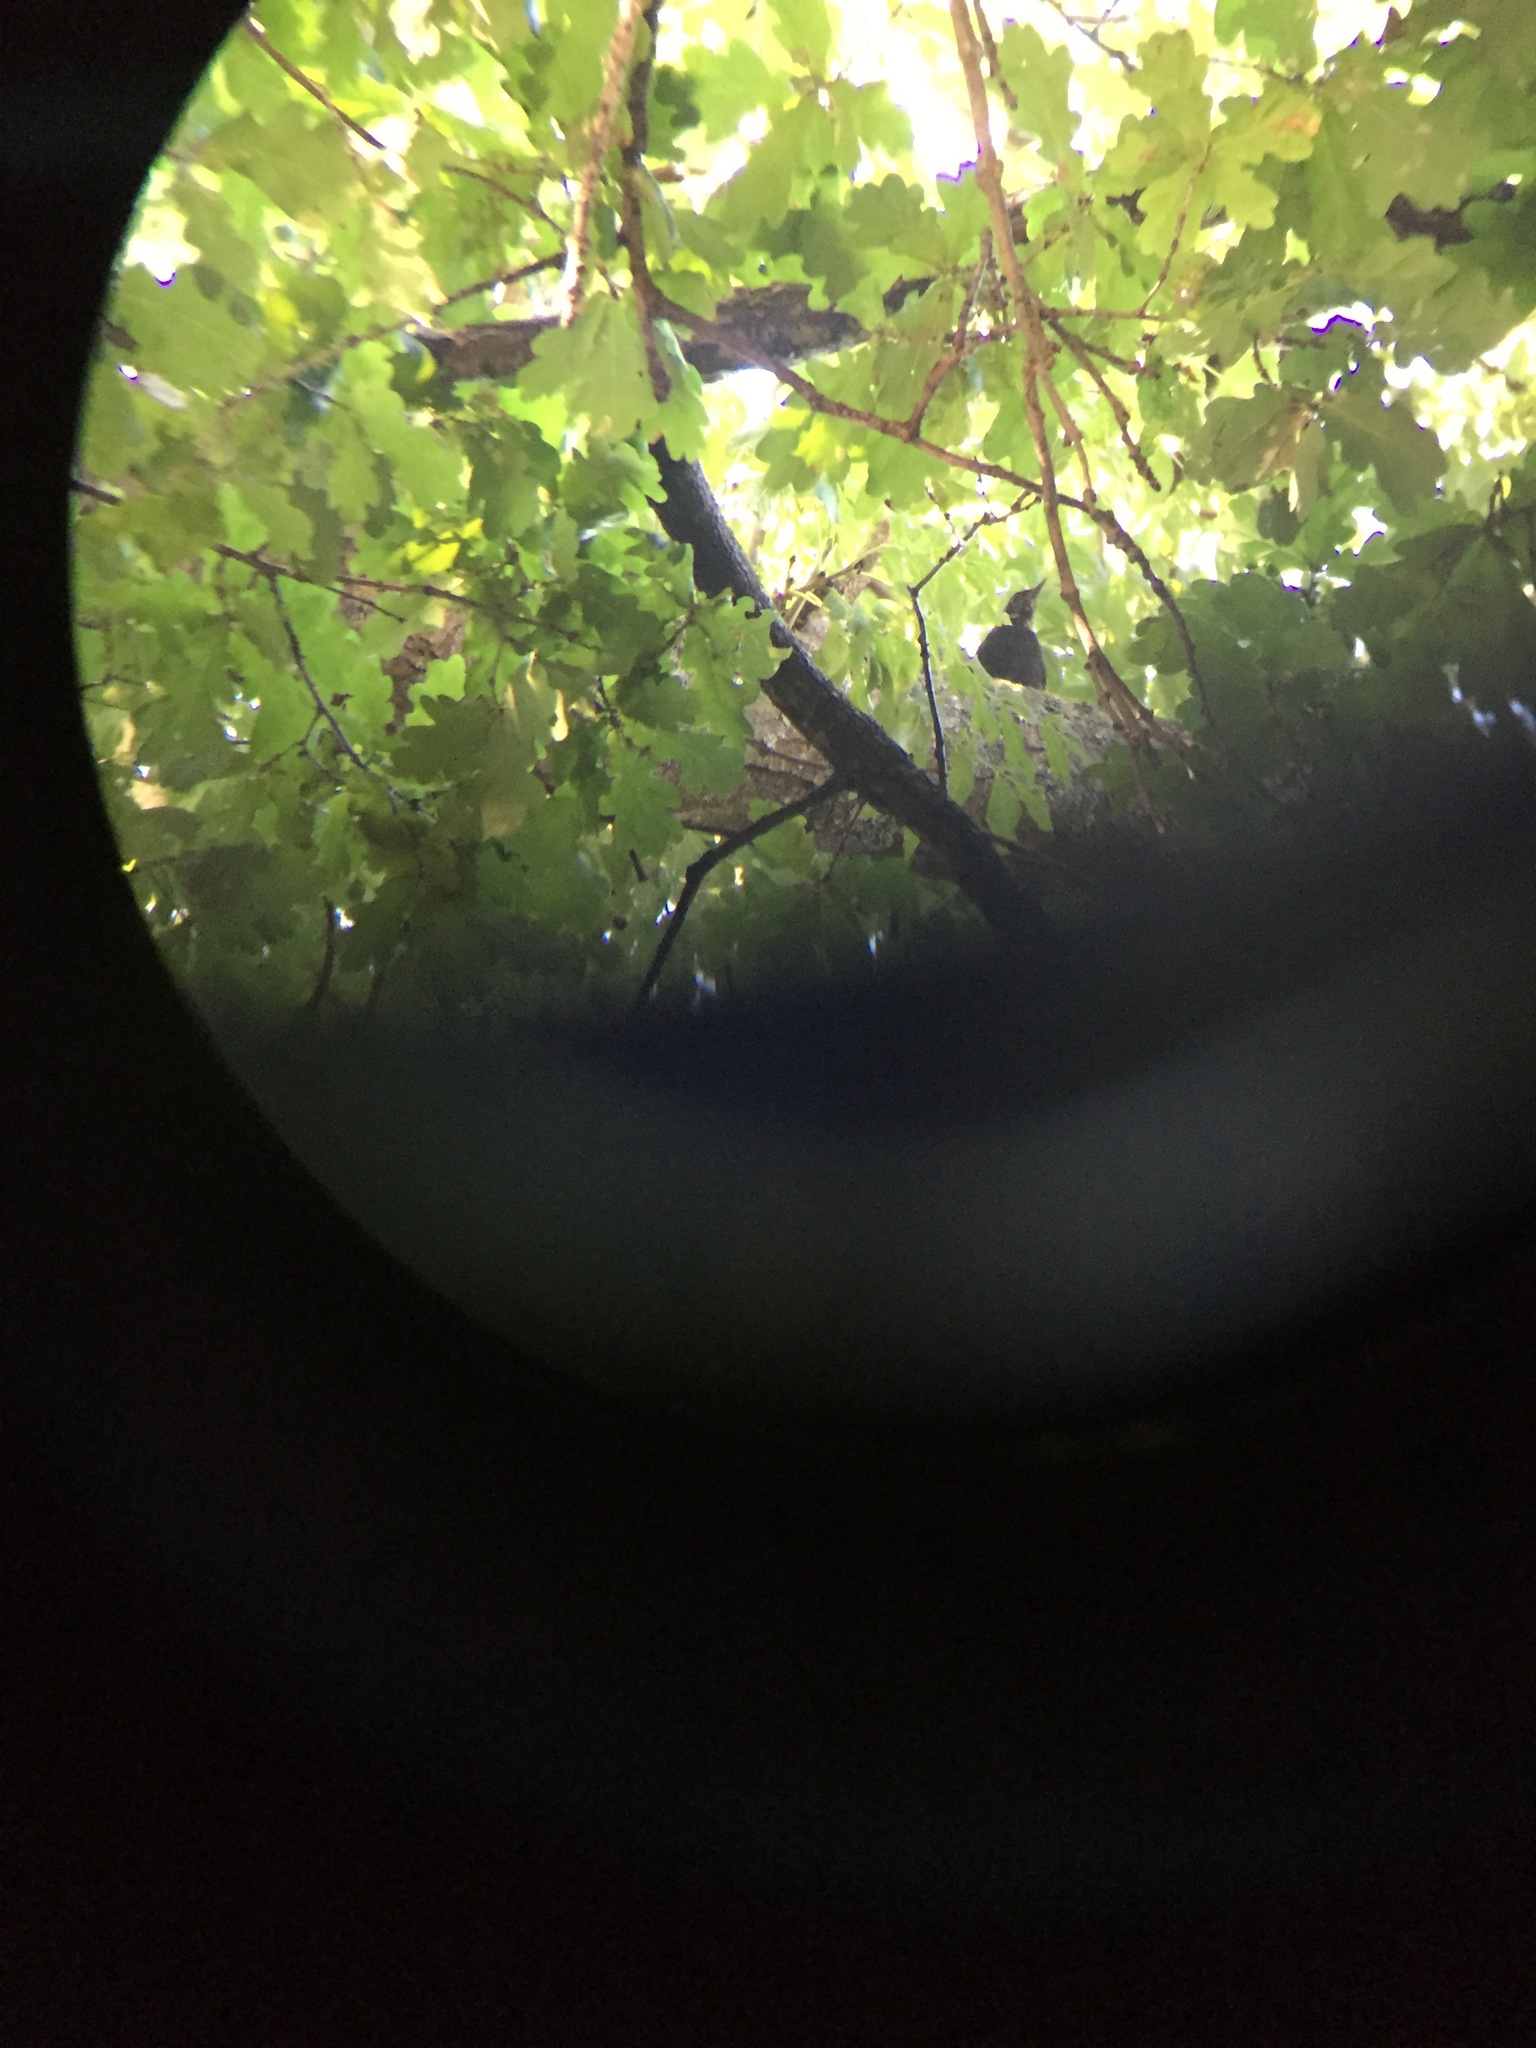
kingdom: Animalia
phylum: Chordata
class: Aves
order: Passeriformes
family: Turdidae
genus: Turdus
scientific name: Turdus merula
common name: Common blackbird
